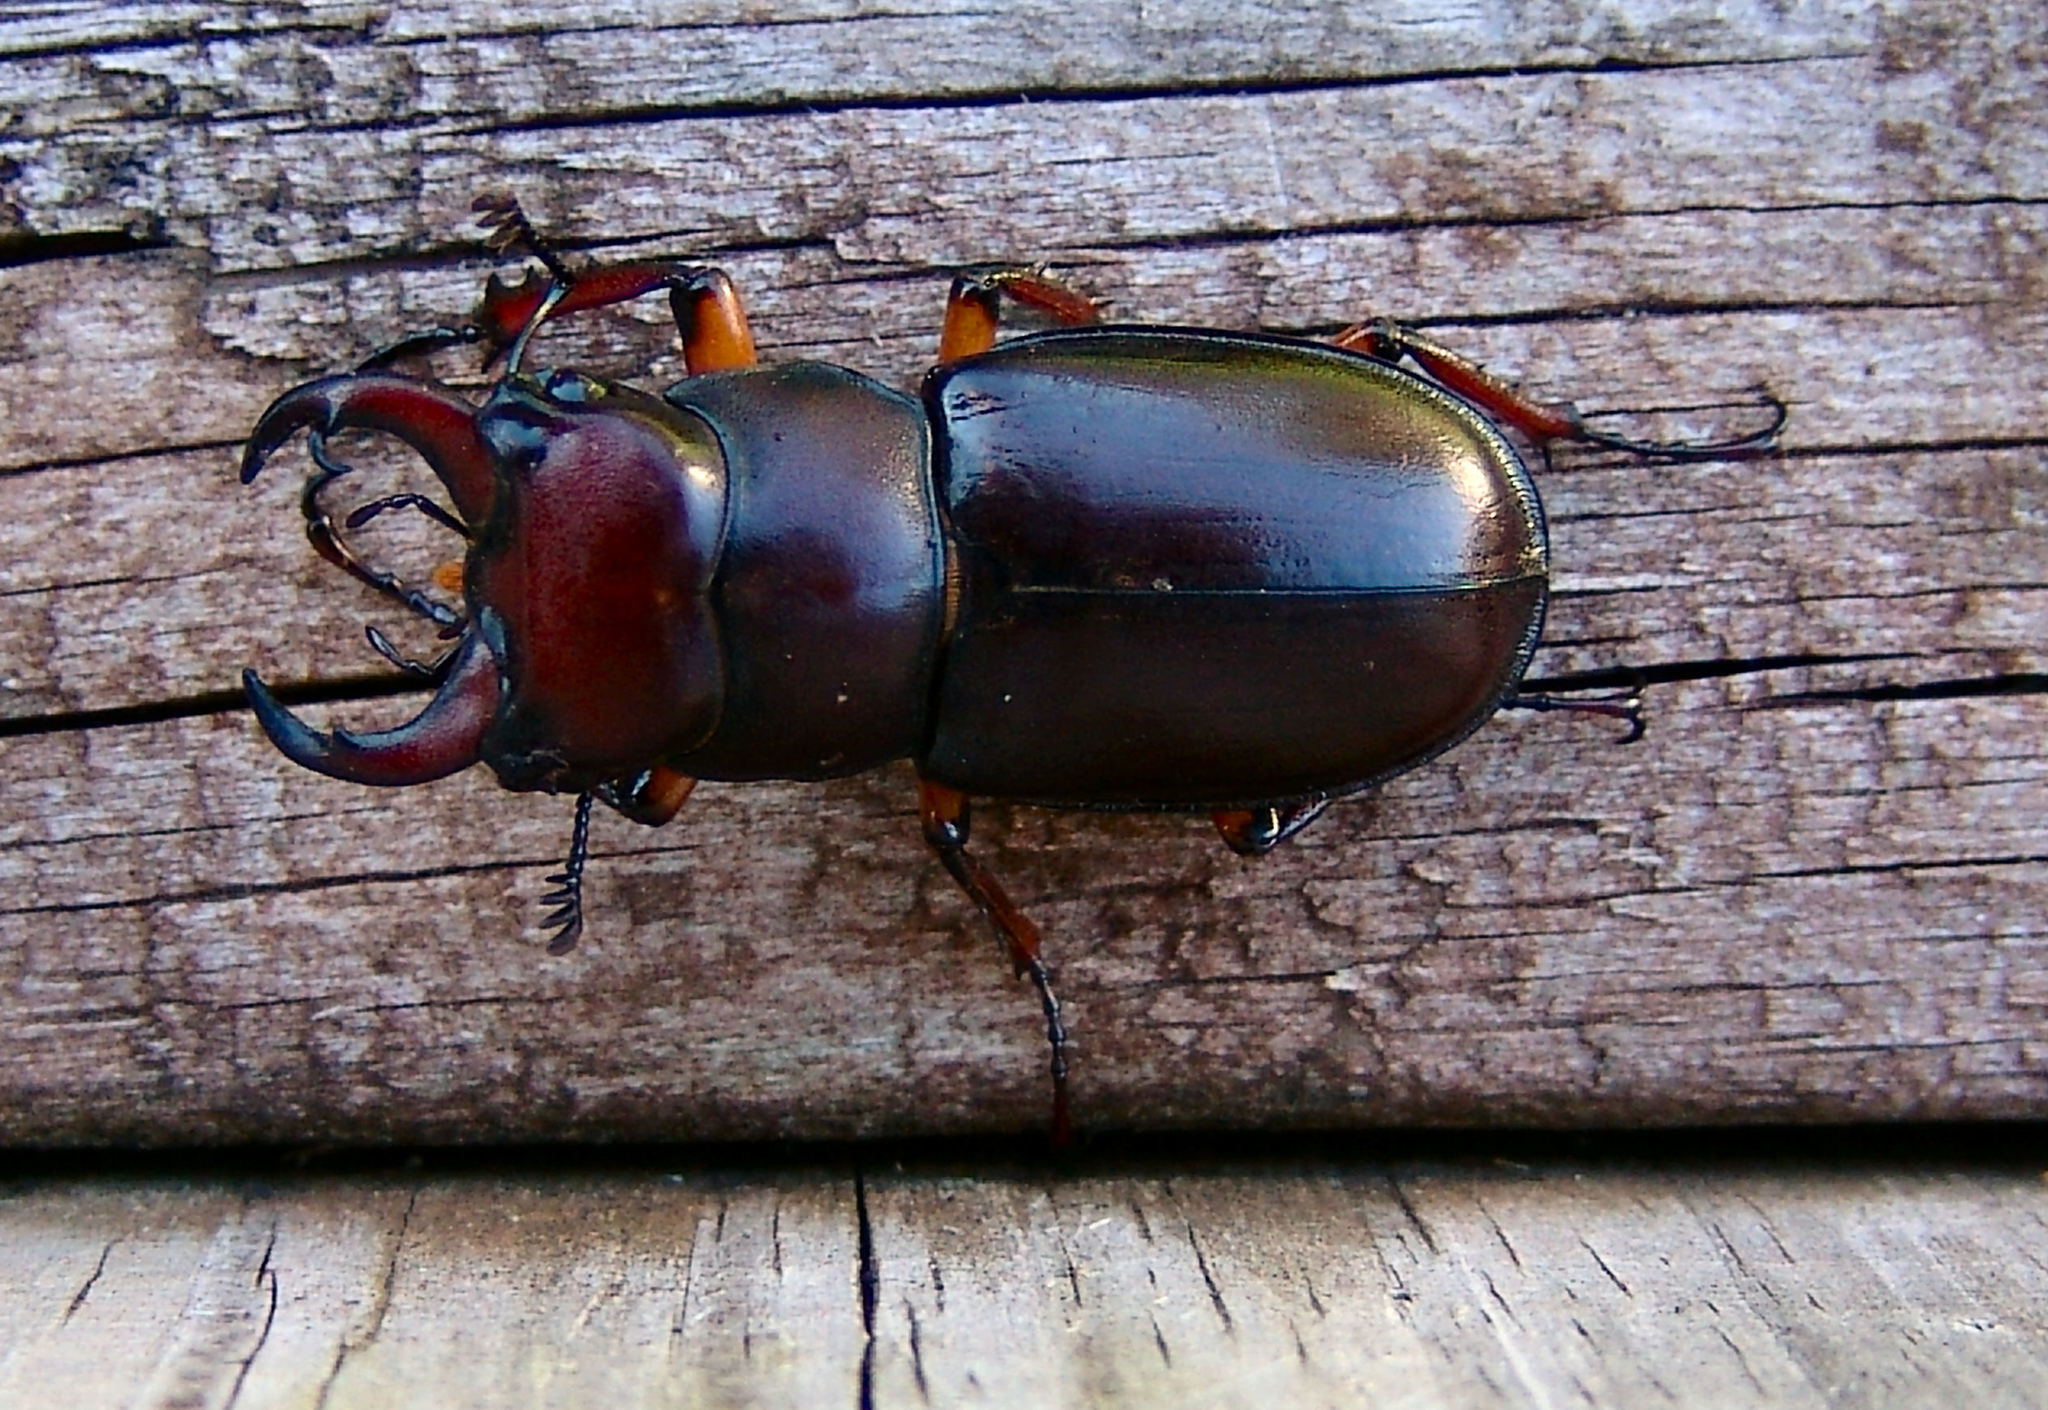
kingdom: Animalia
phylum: Arthropoda
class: Insecta
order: Coleoptera
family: Lucanidae
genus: Lucanus
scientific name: Lucanus capreolus
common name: Stag beetle
